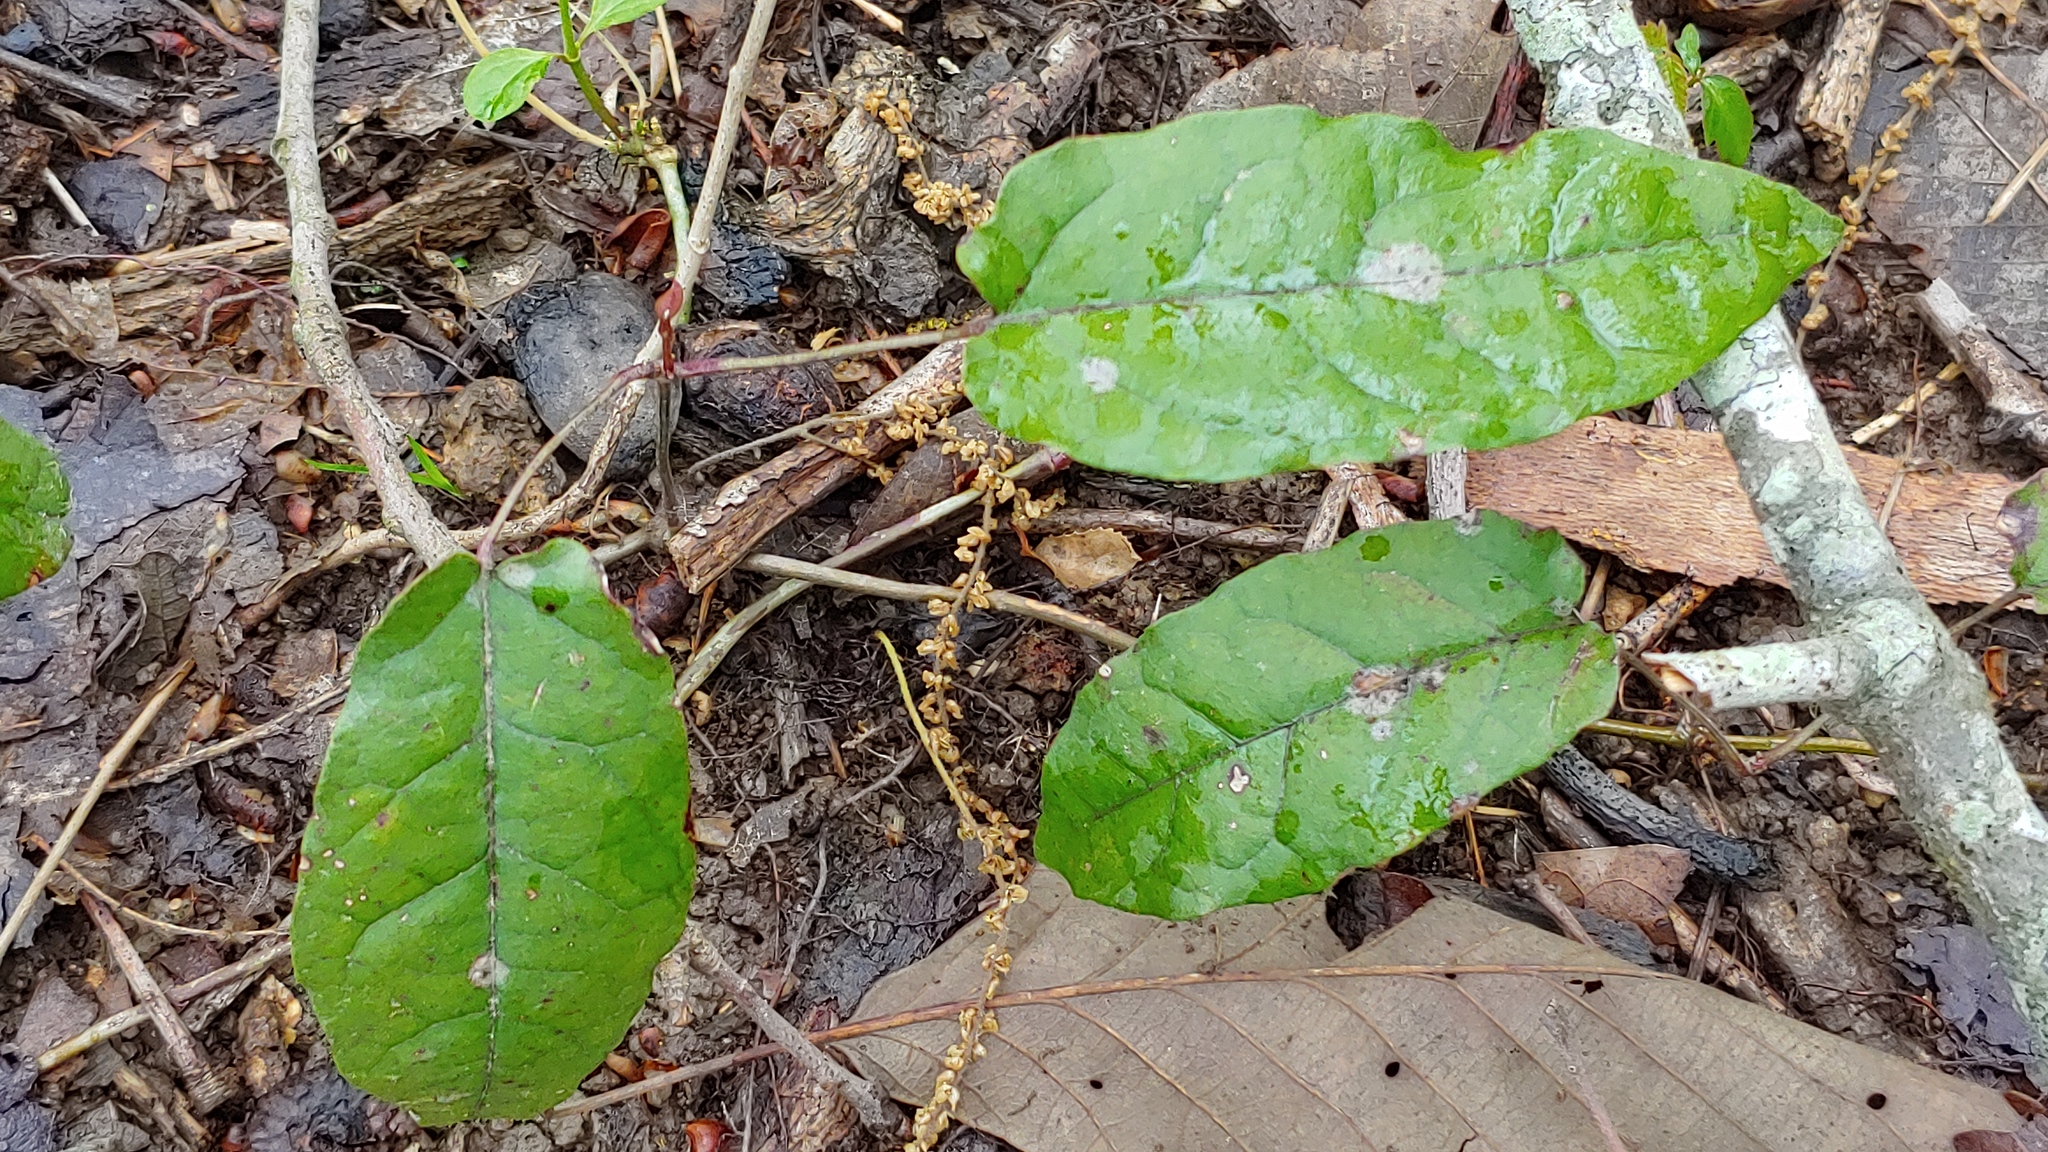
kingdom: Plantae
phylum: Tracheophyta
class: Magnoliopsida
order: Lamiales
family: Bignoniaceae
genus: Bignonia
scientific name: Bignonia capreolata
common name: Crossvine
